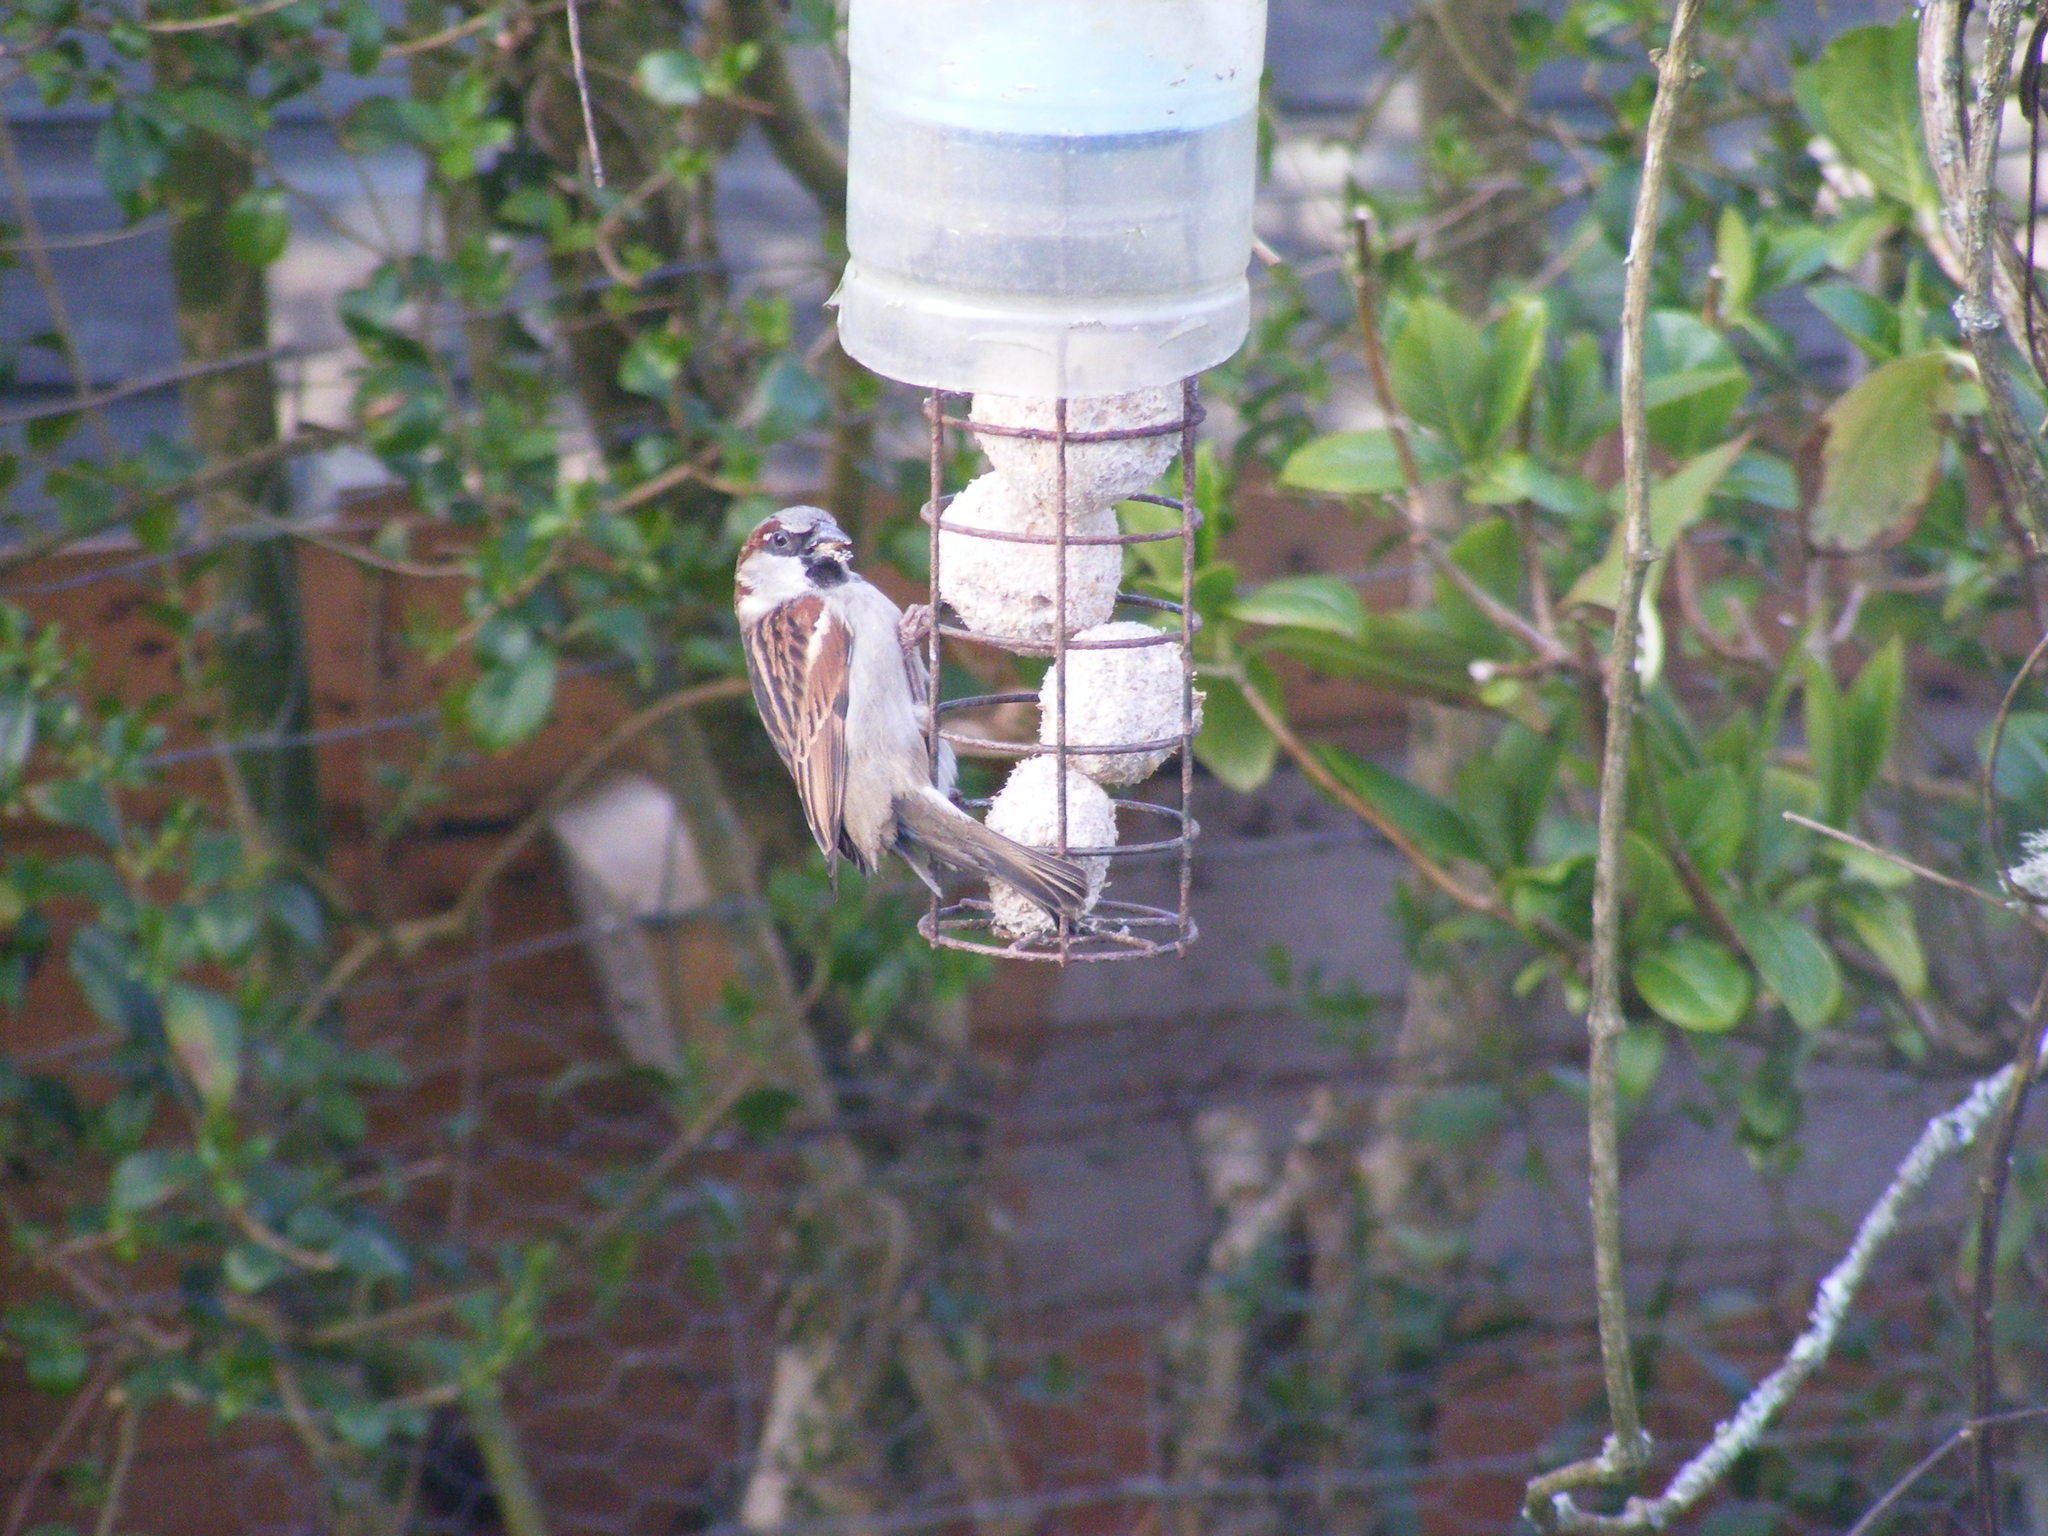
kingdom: Animalia
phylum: Chordata
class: Aves
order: Passeriformes
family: Passeridae
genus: Passer
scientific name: Passer domesticus
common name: House sparrow
